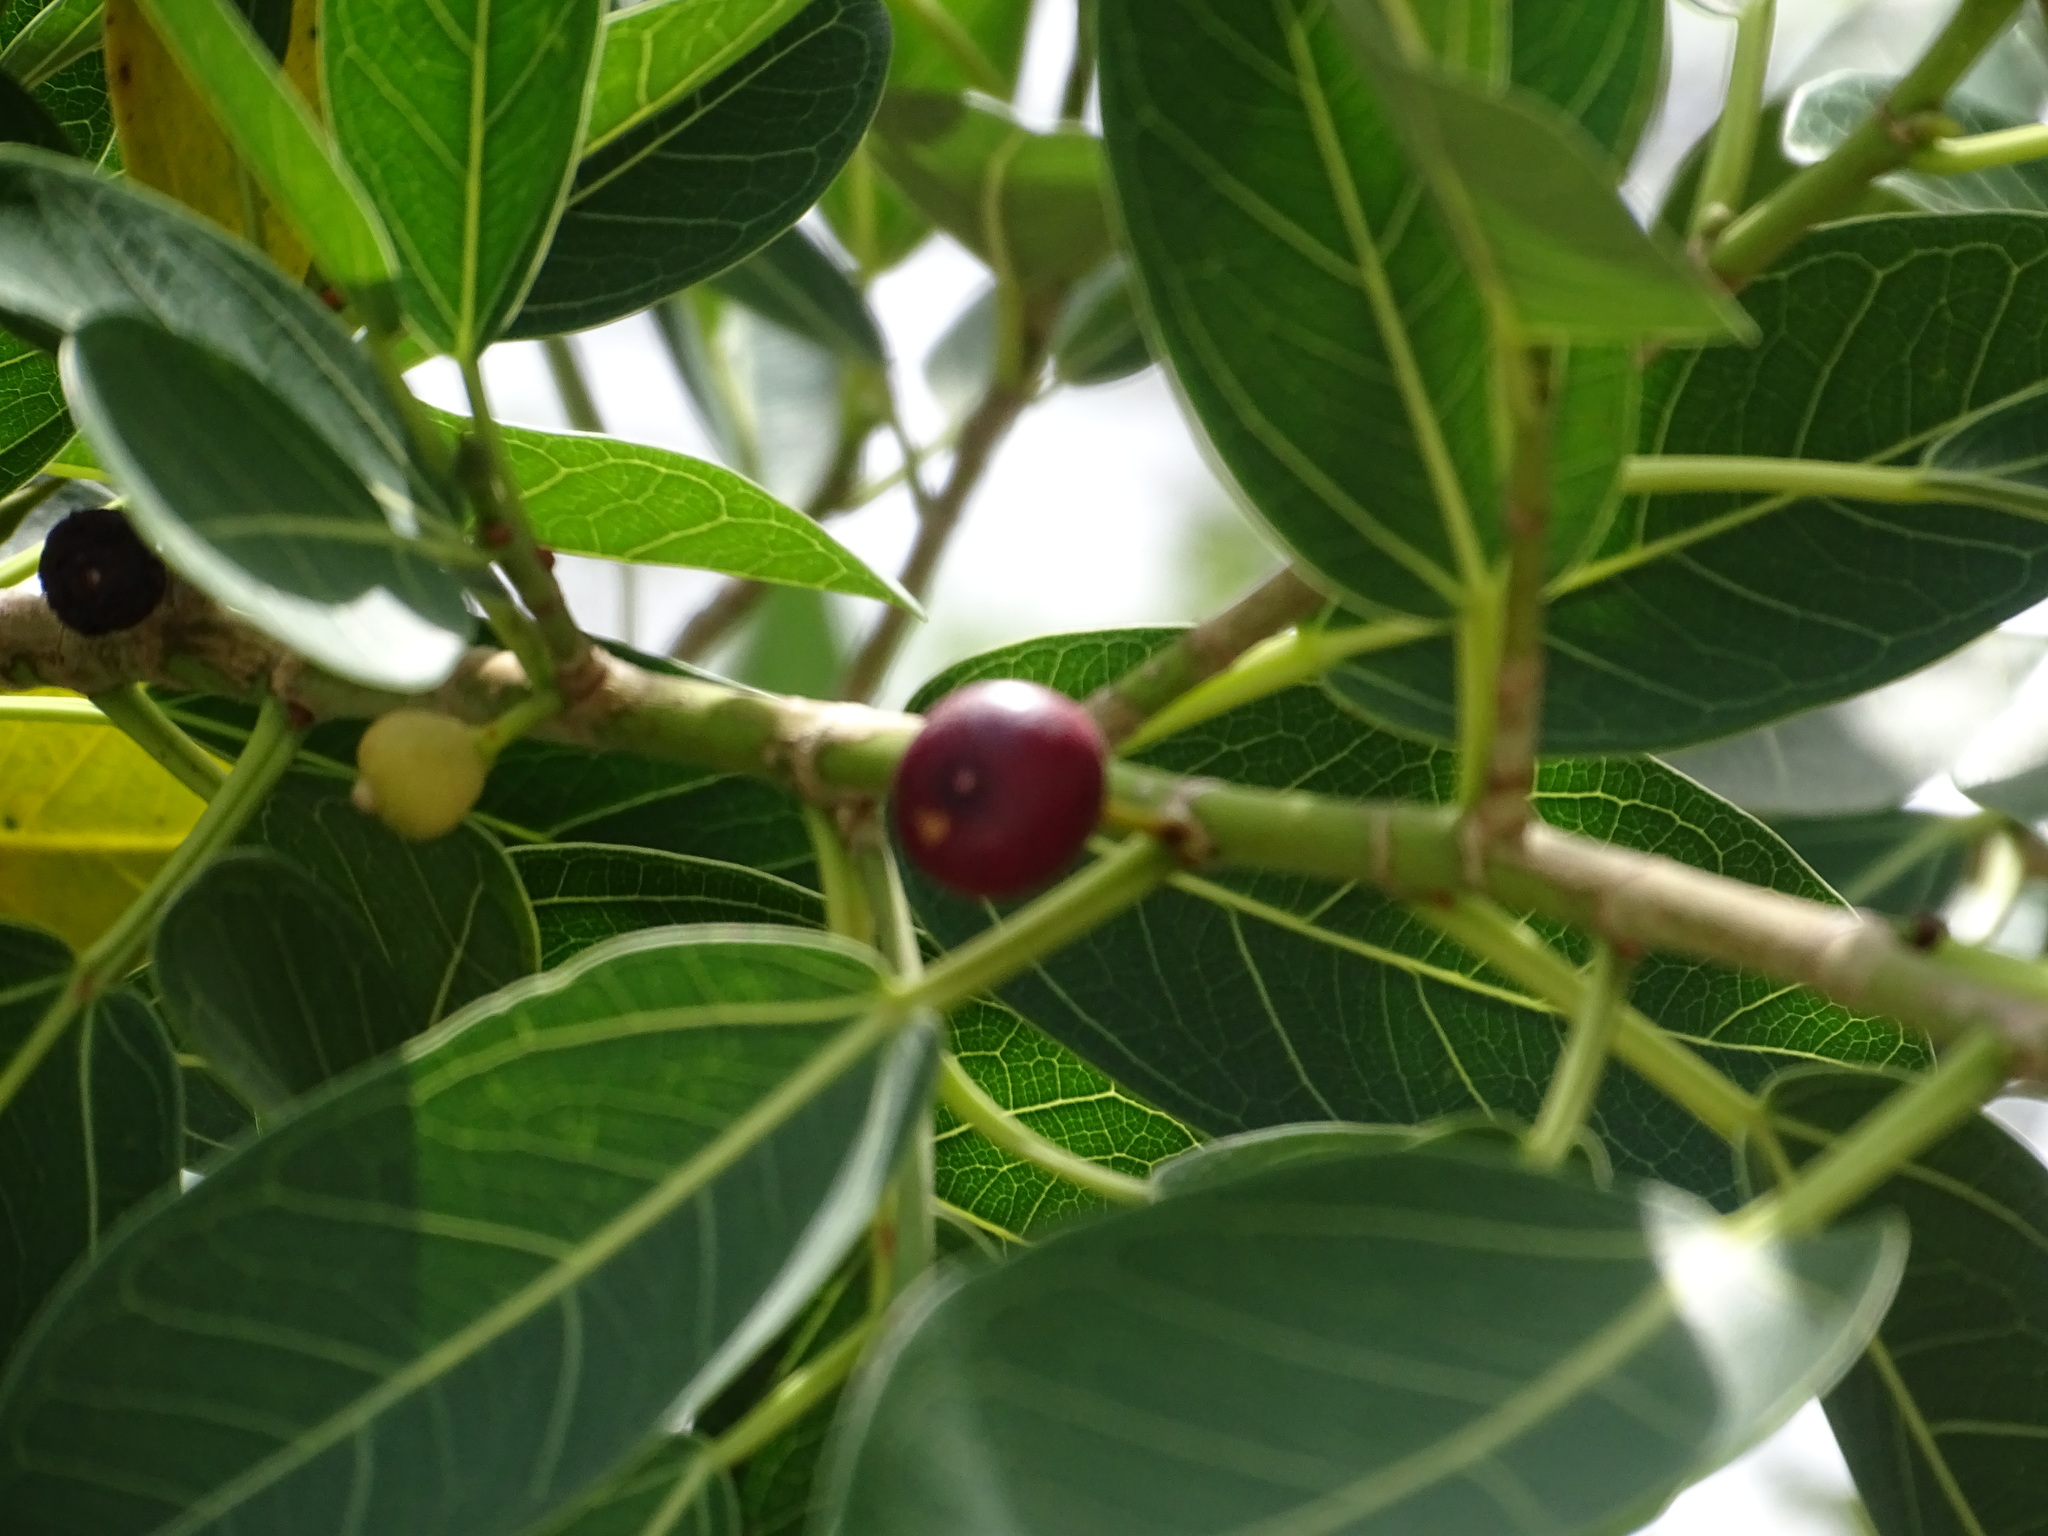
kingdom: Plantae
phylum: Tracheophyta
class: Magnoliopsida
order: Rosales
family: Moraceae
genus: Ficus
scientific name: Ficus crassinervia
